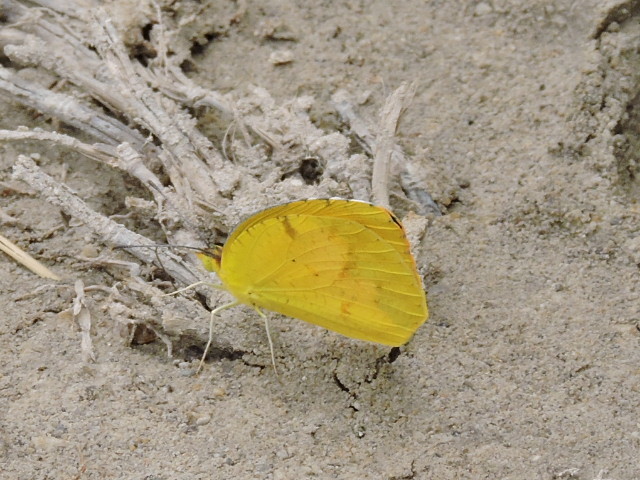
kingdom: Animalia
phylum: Arthropoda
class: Insecta
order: Lepidoptera
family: Pieridae
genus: Abaeis
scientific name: Abaeis nicippe
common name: Sleepy orange
